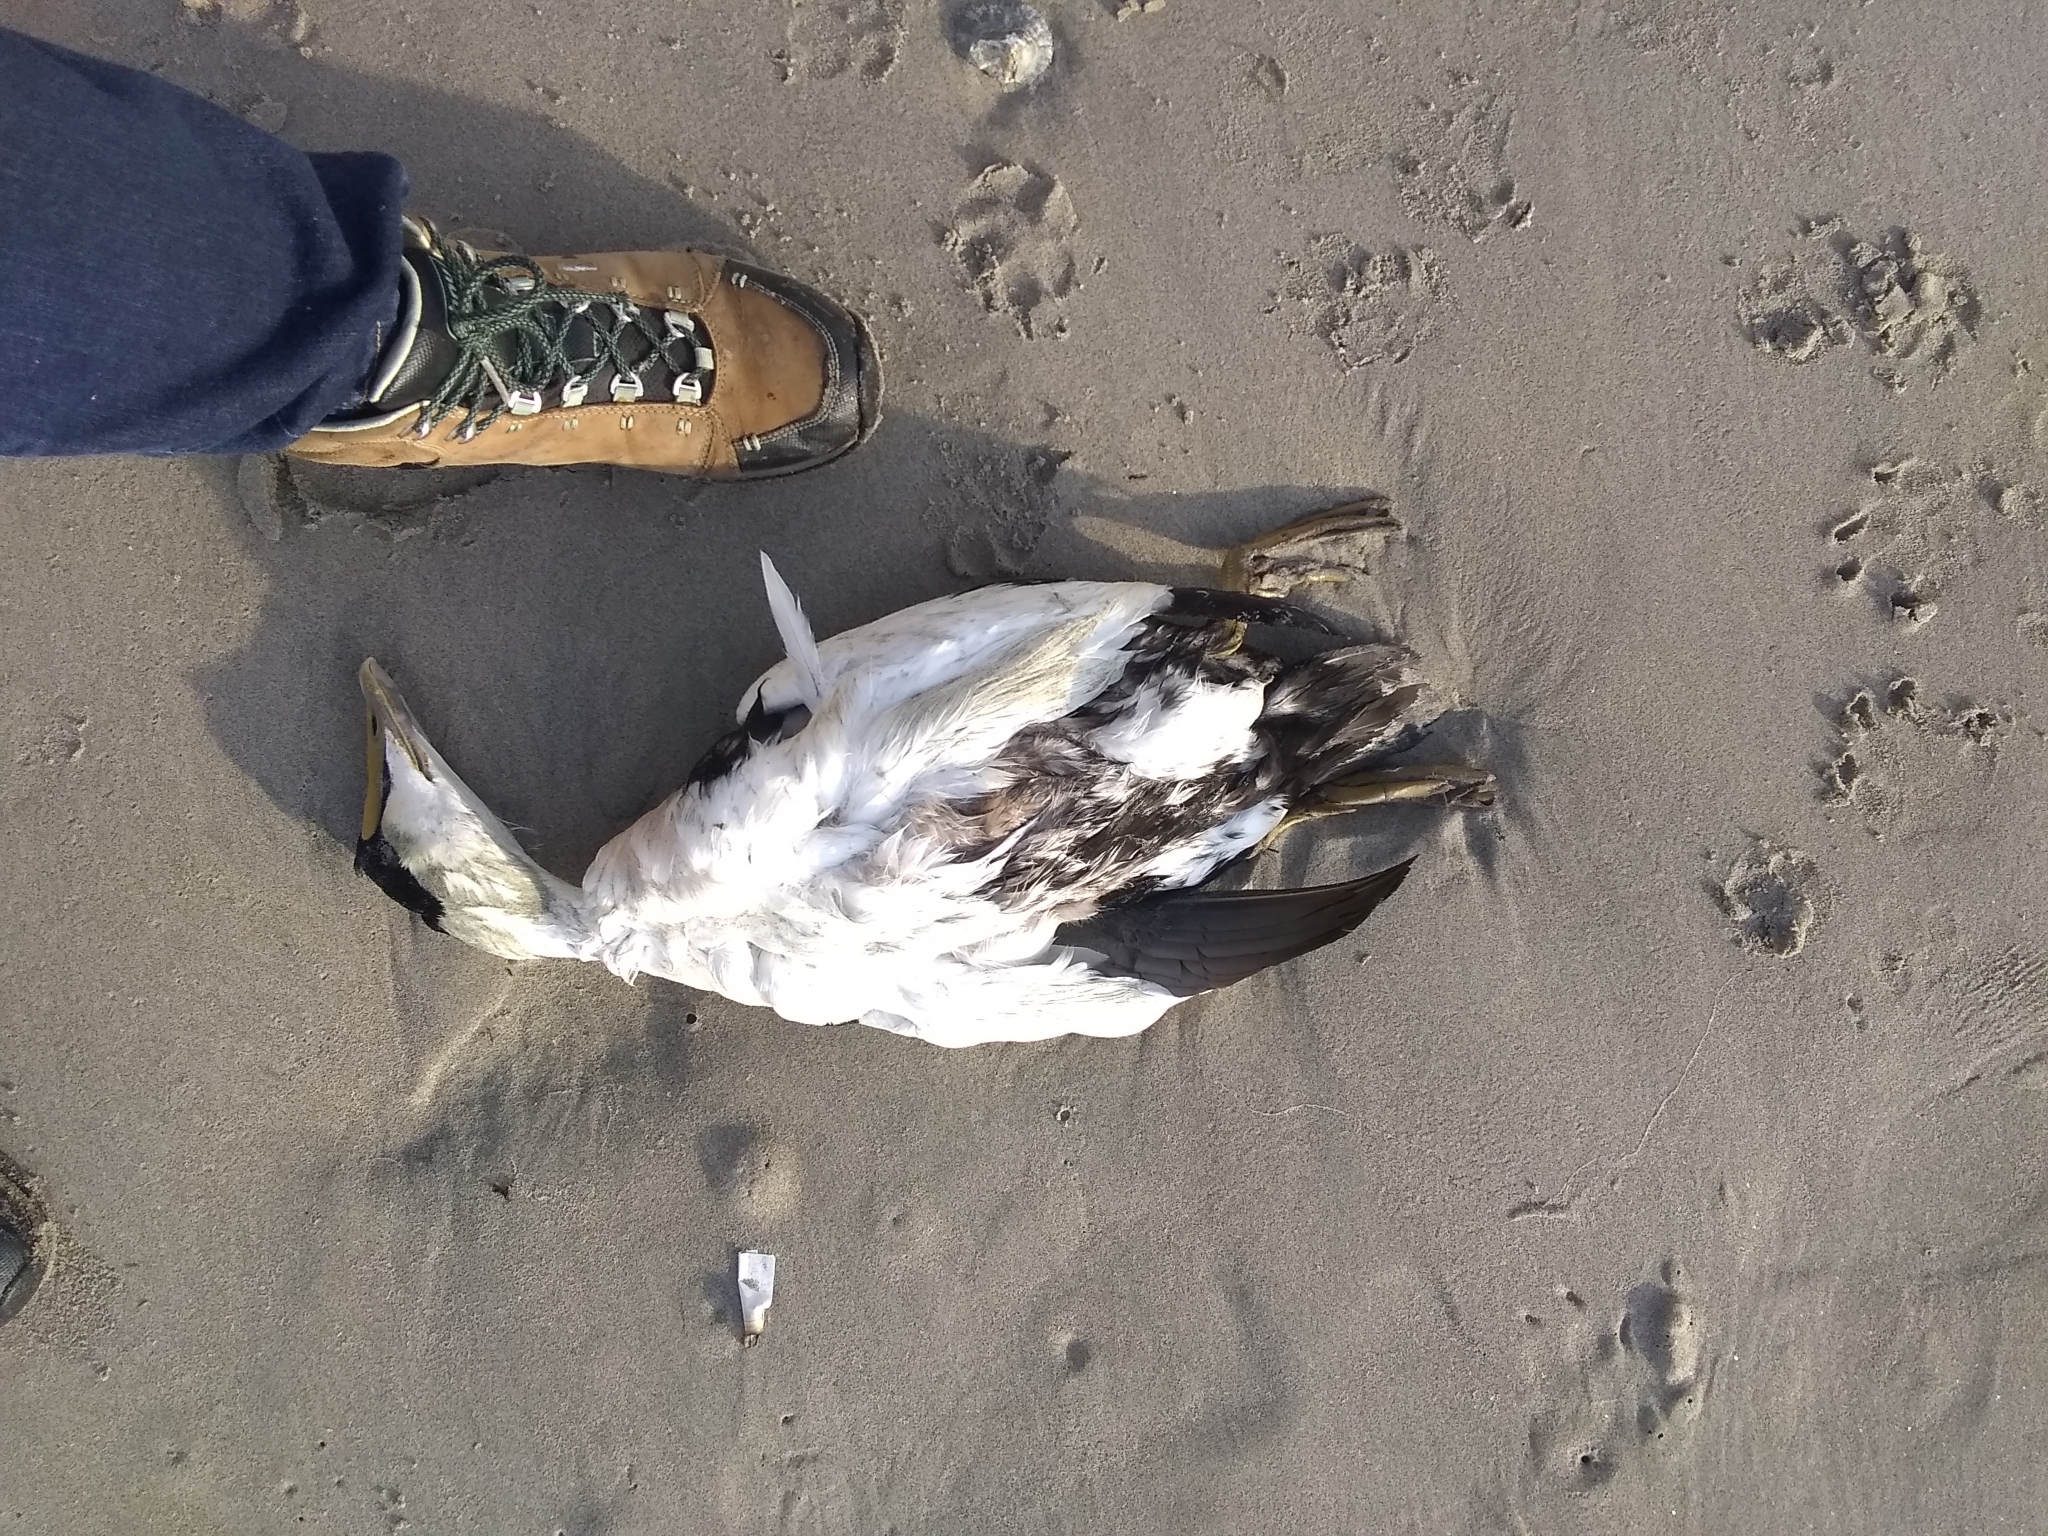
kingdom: Animalia
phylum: Chordata
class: Aves
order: Anseriformes
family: Anatidae
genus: Somateria
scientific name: Somateria mollissima
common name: Common eider
